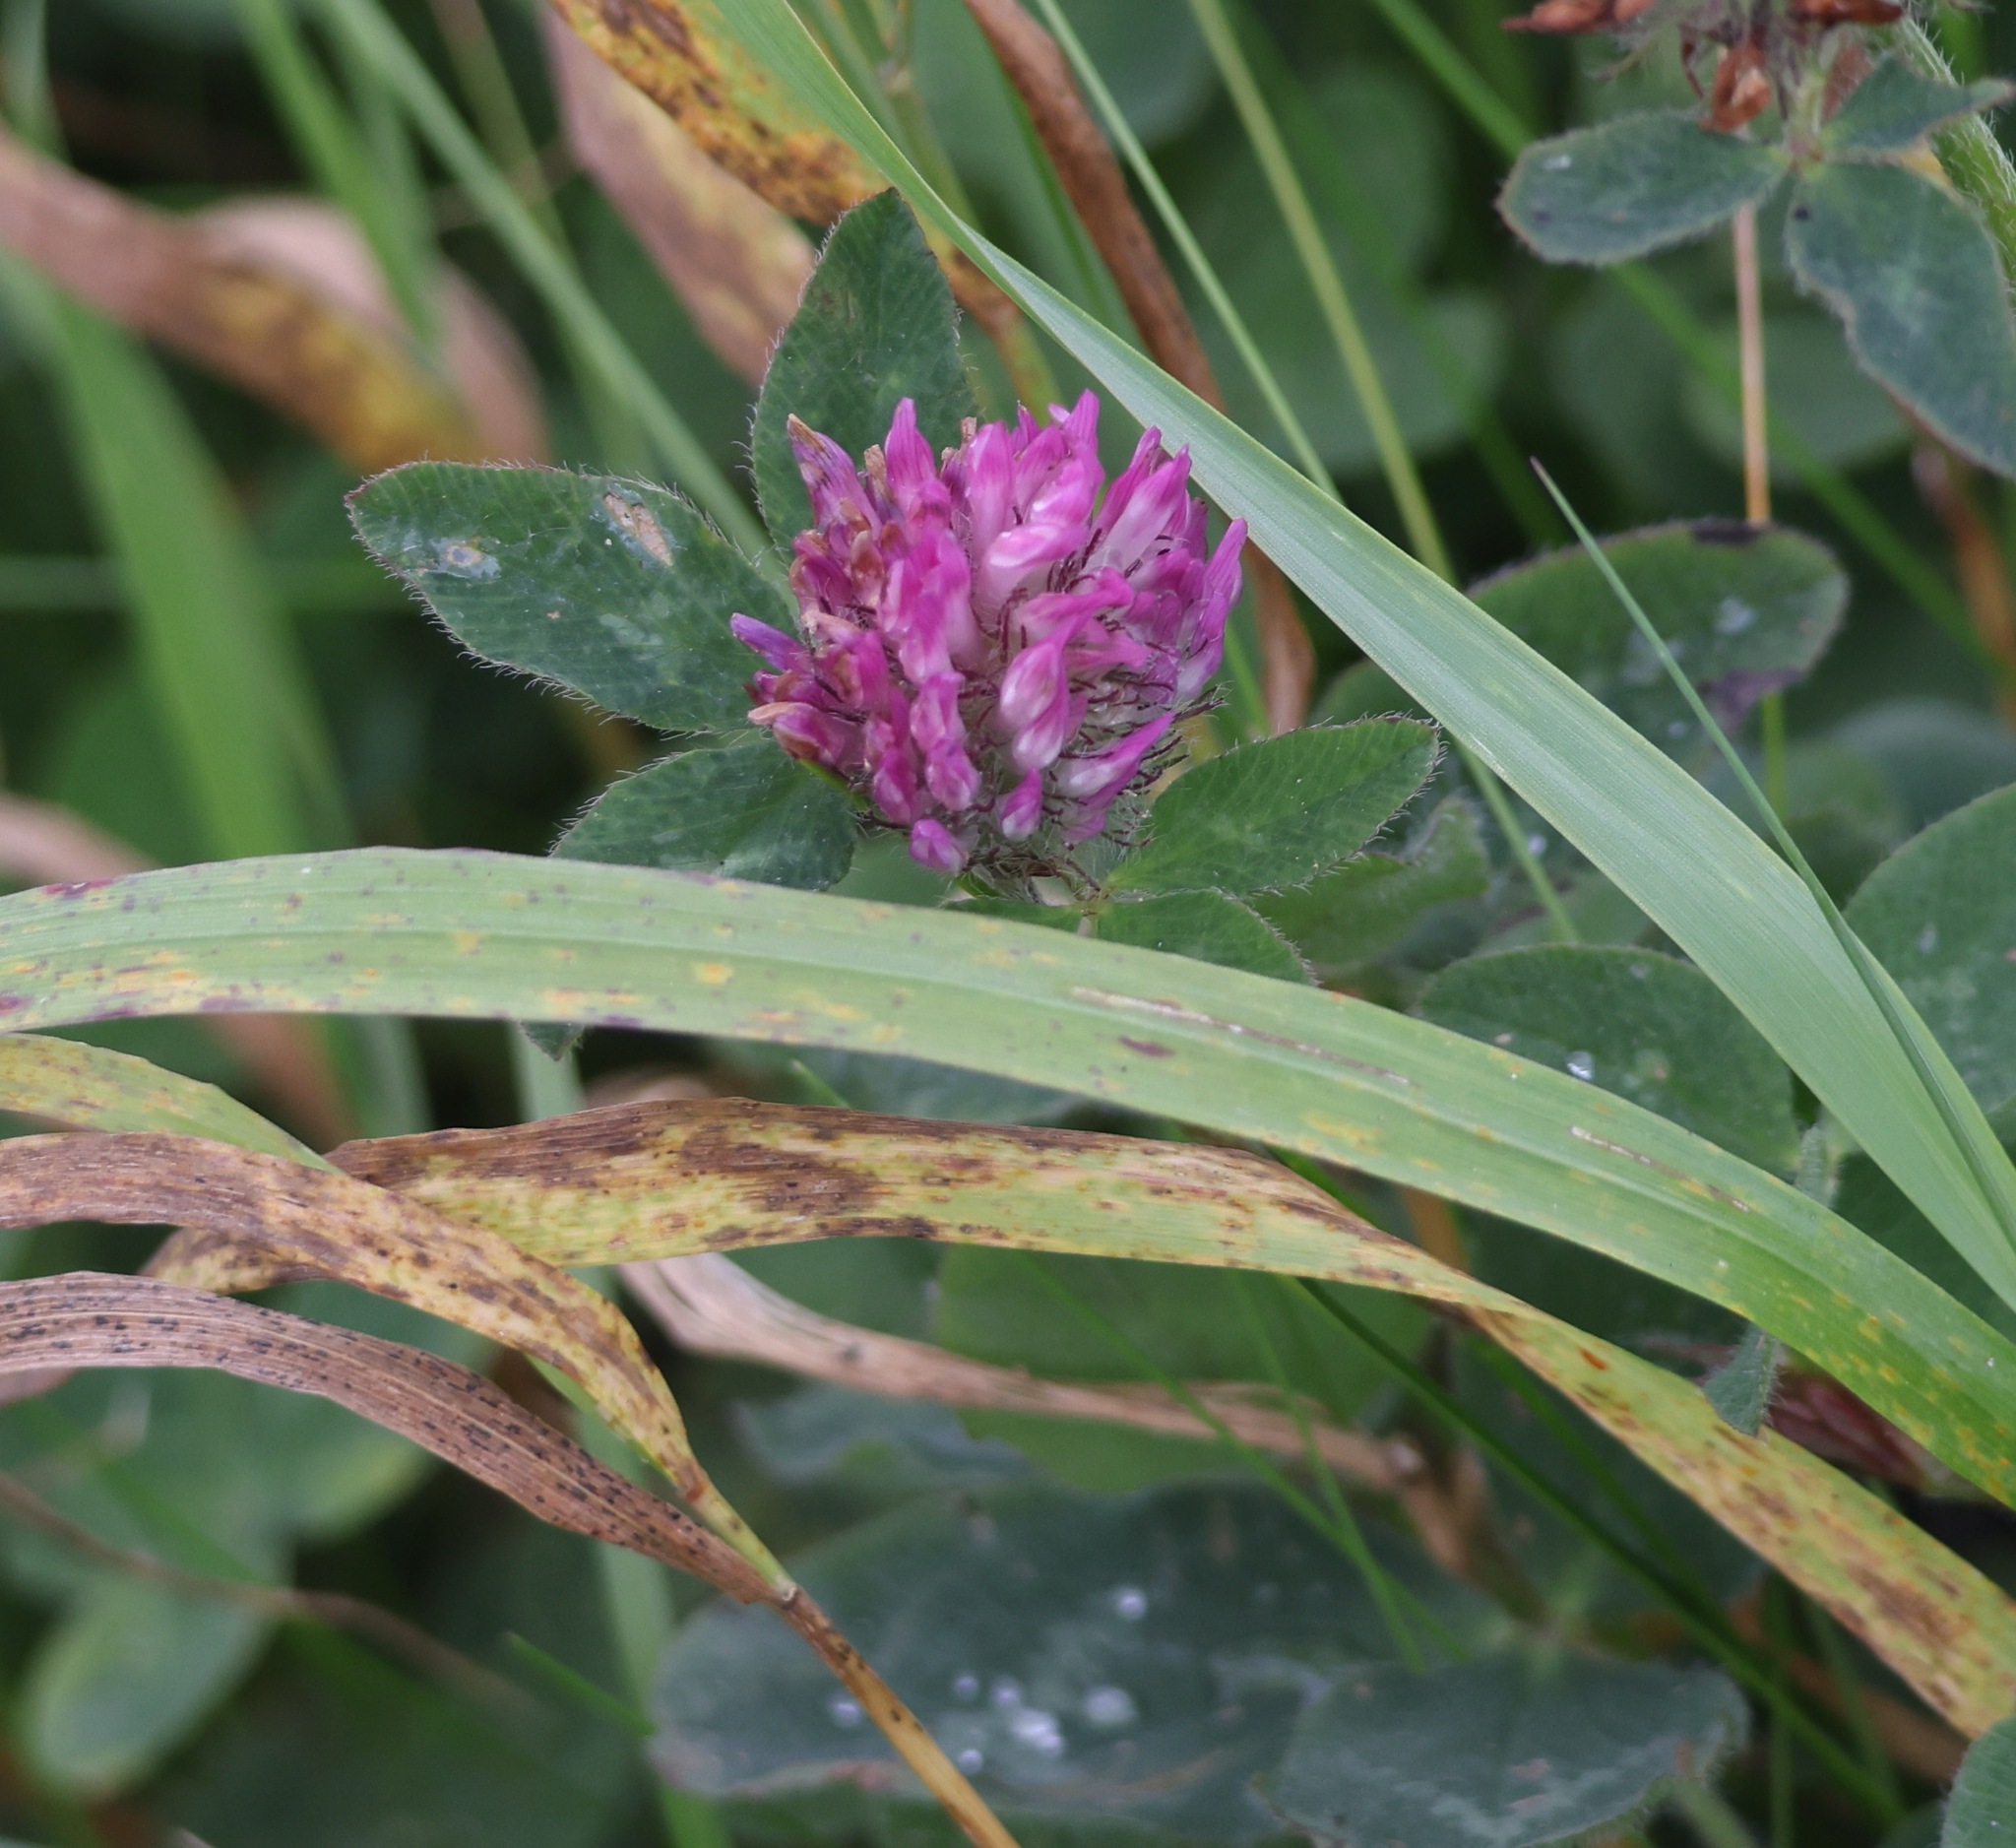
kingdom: Plantae
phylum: Tracheophyta
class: Magnoliopsida
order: Fabales
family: Fabaceae
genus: Trifolium
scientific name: Trifolium pratense
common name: Red clover
